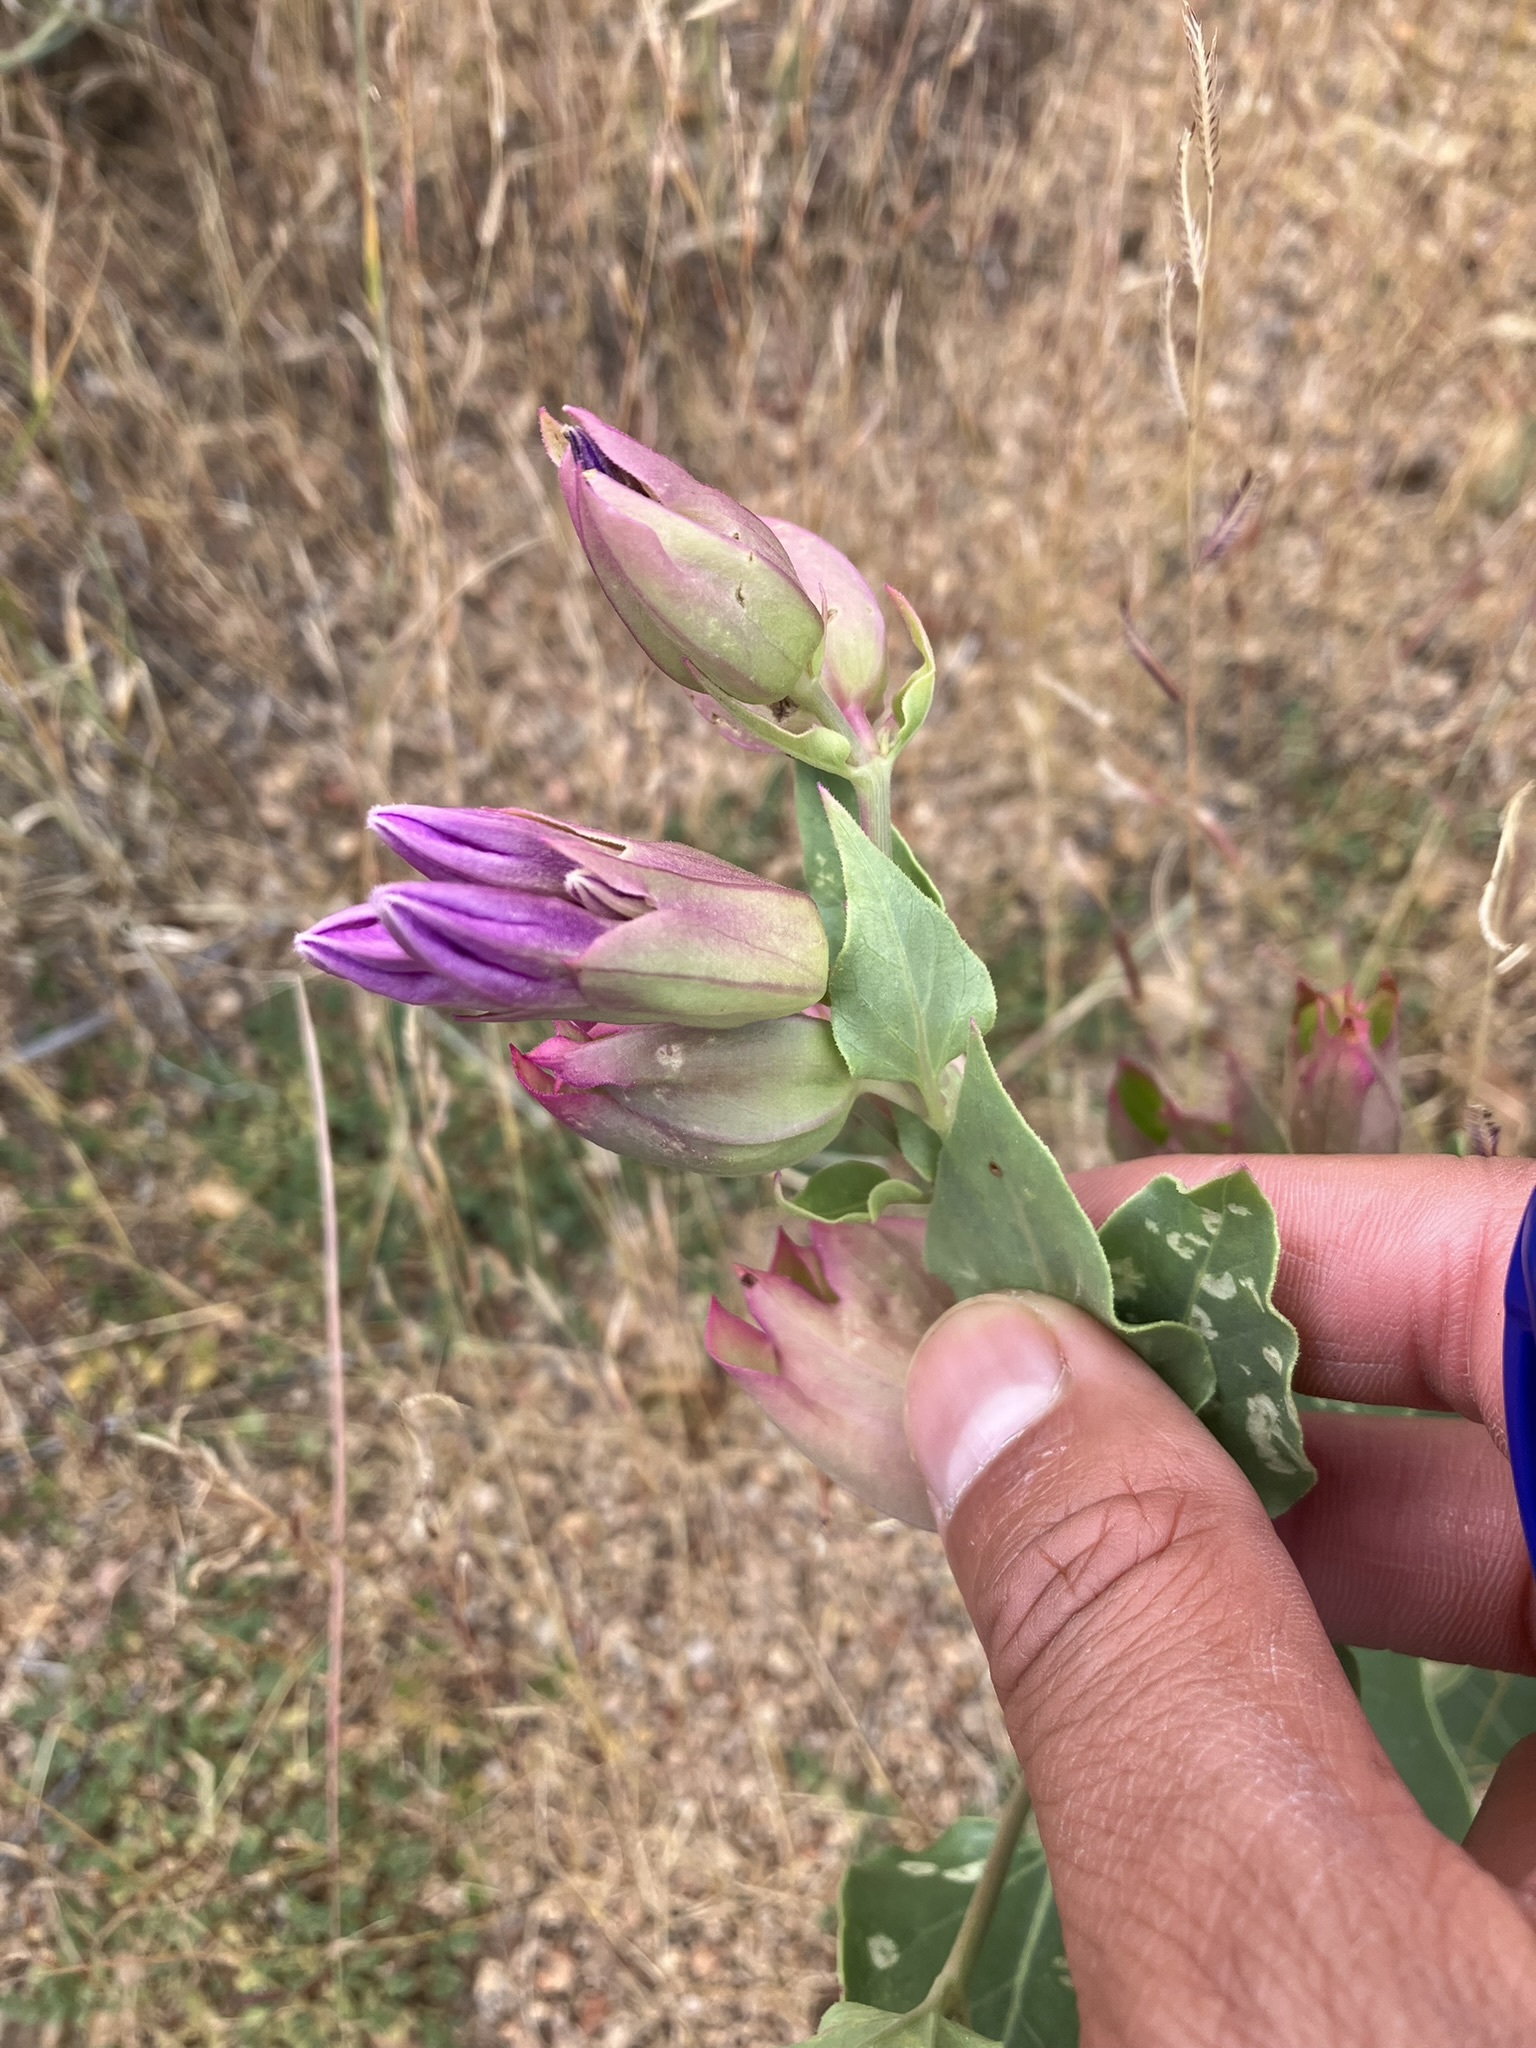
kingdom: Plantae
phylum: Tracheophyta
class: Magnoliopsida
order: Caryophyllales
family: Nyctaginaceae
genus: Mirabilis
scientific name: Mirabilis multiflora
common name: Froebel's four-o'clock
